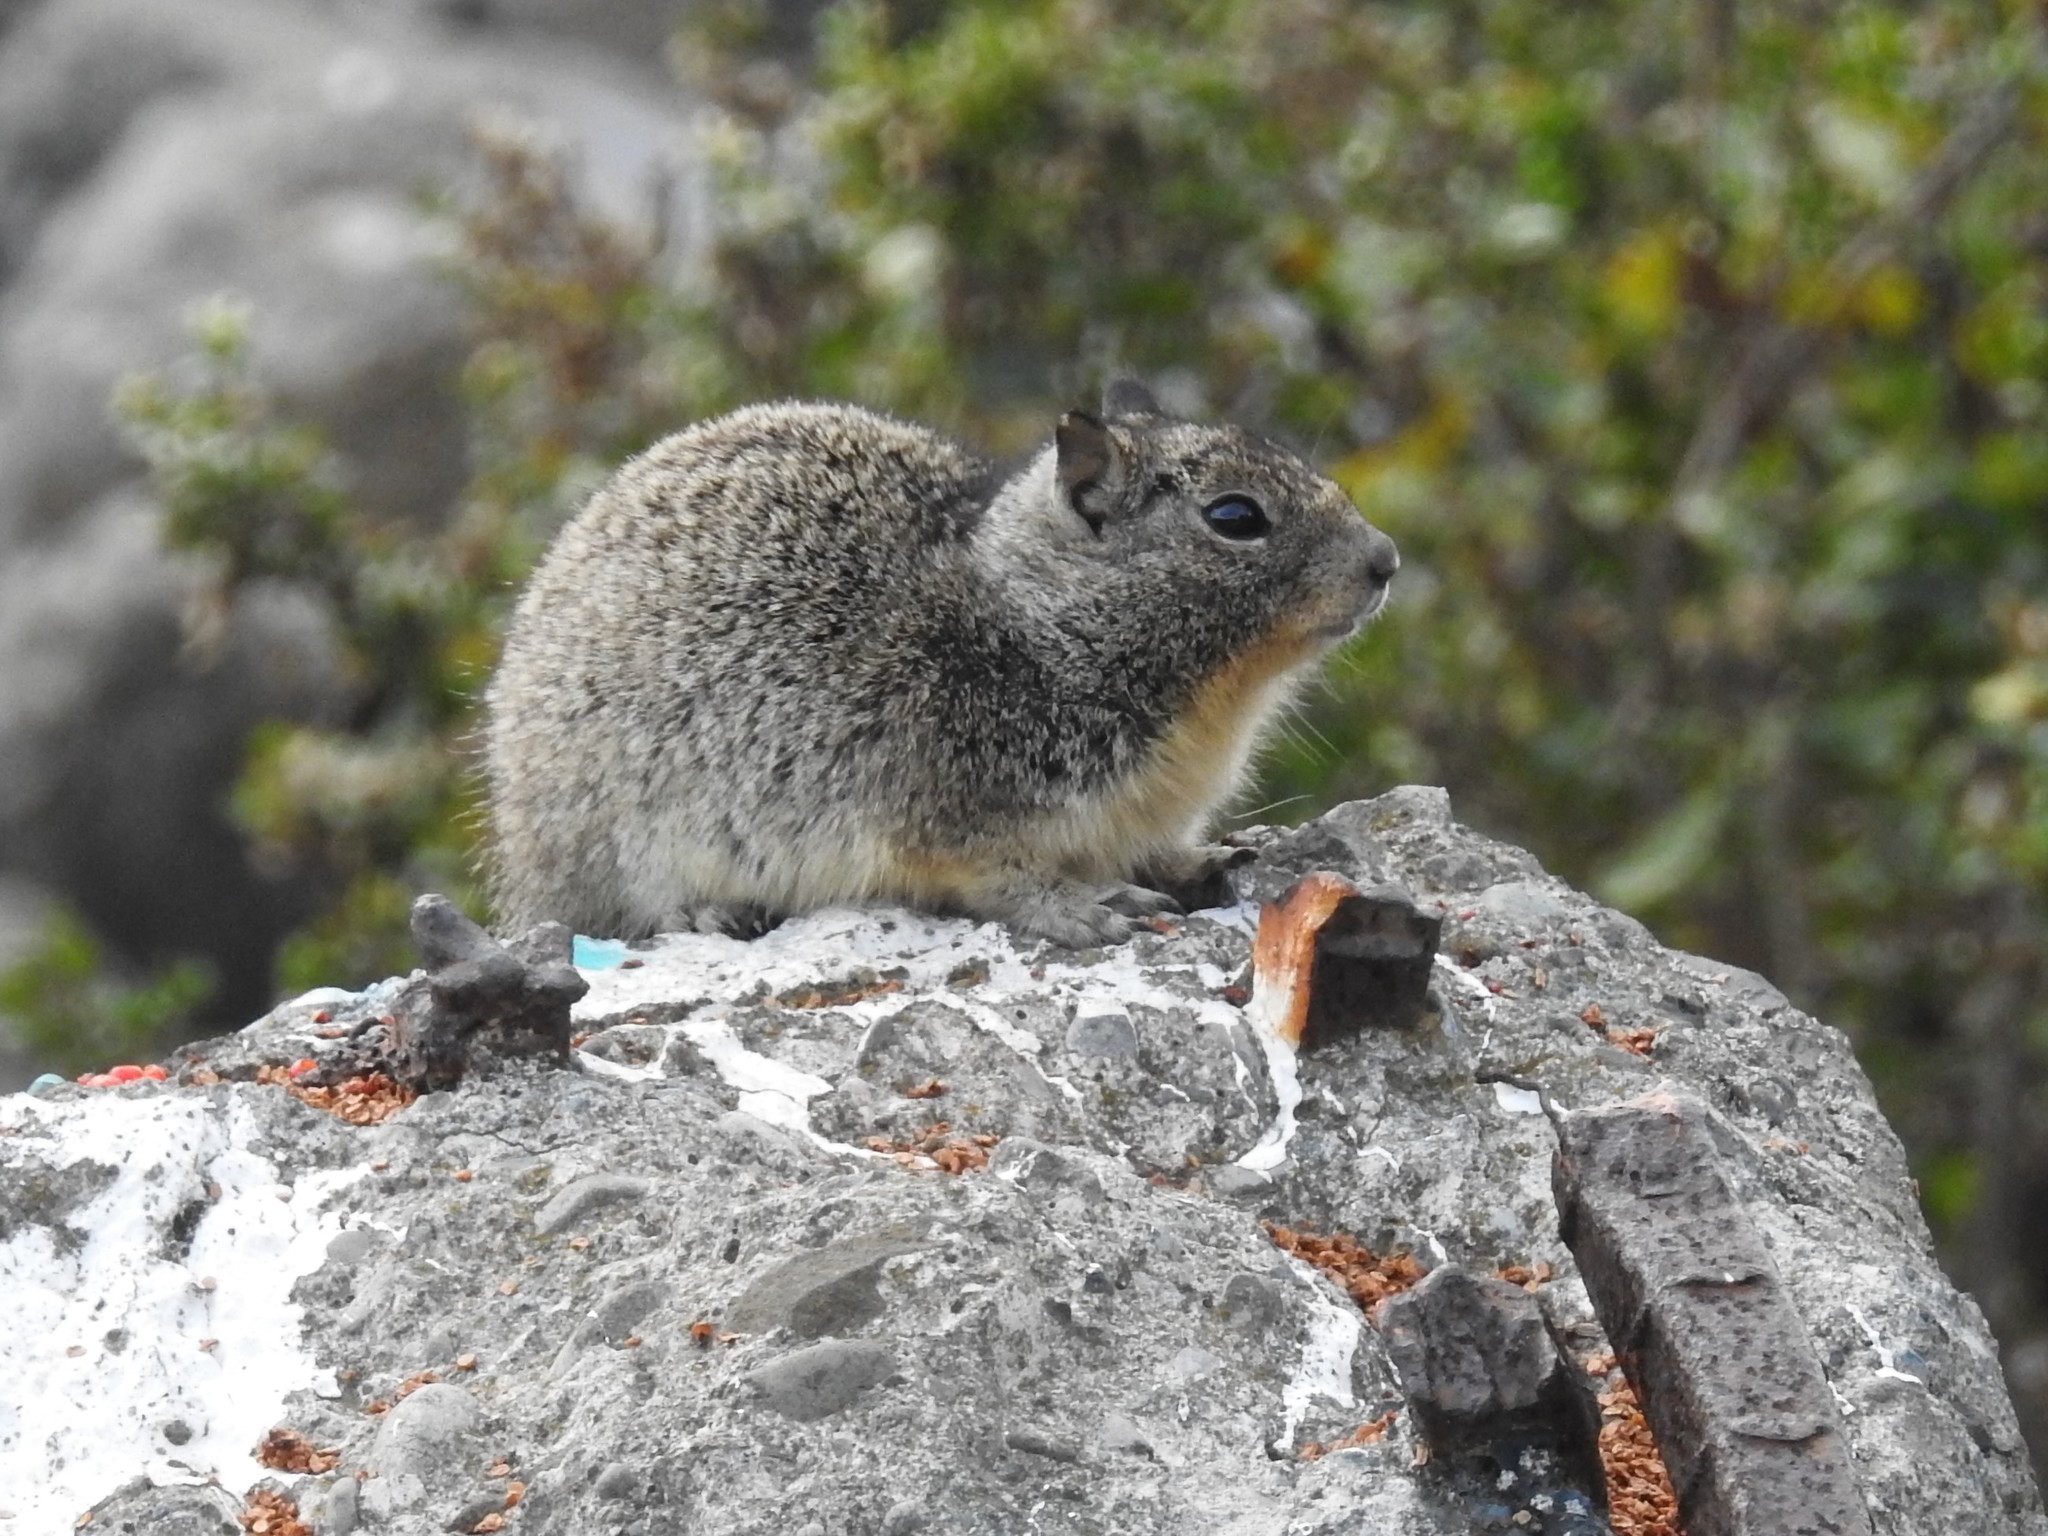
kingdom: Animalia
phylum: Chordata
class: Mammalia
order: Rodentia
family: Sciuridae
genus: Otospermophilus
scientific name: Otospermophilus beecheyi
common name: California ground squirrel
